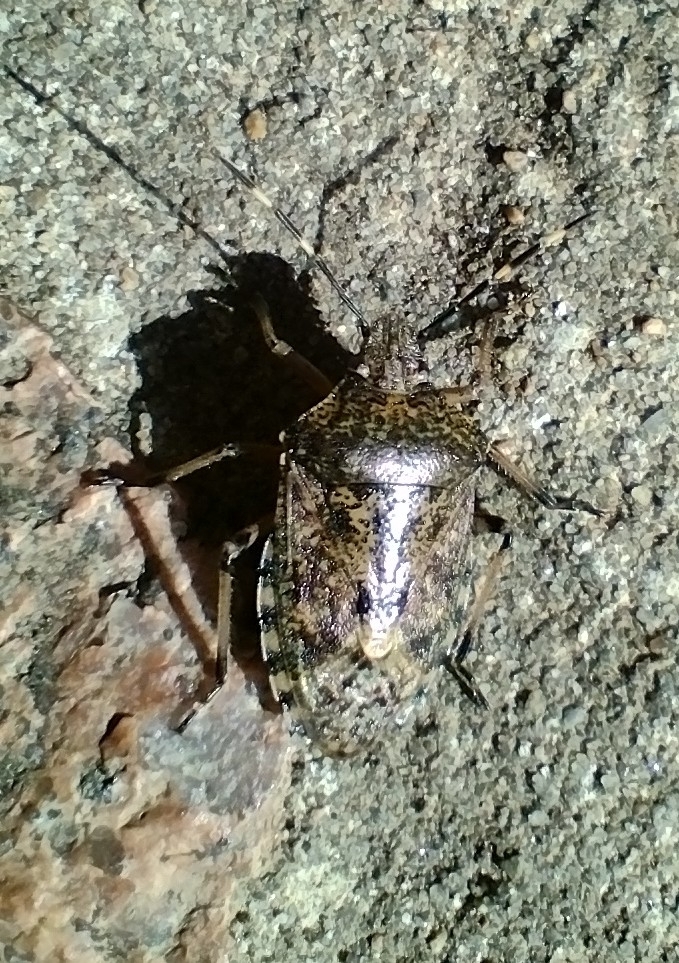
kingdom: Animalia
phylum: Arthropoda
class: Insecta
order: Hemiptera
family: Pentatomidae
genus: Rhaphigaster
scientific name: Rhaphigaster nebulosa
